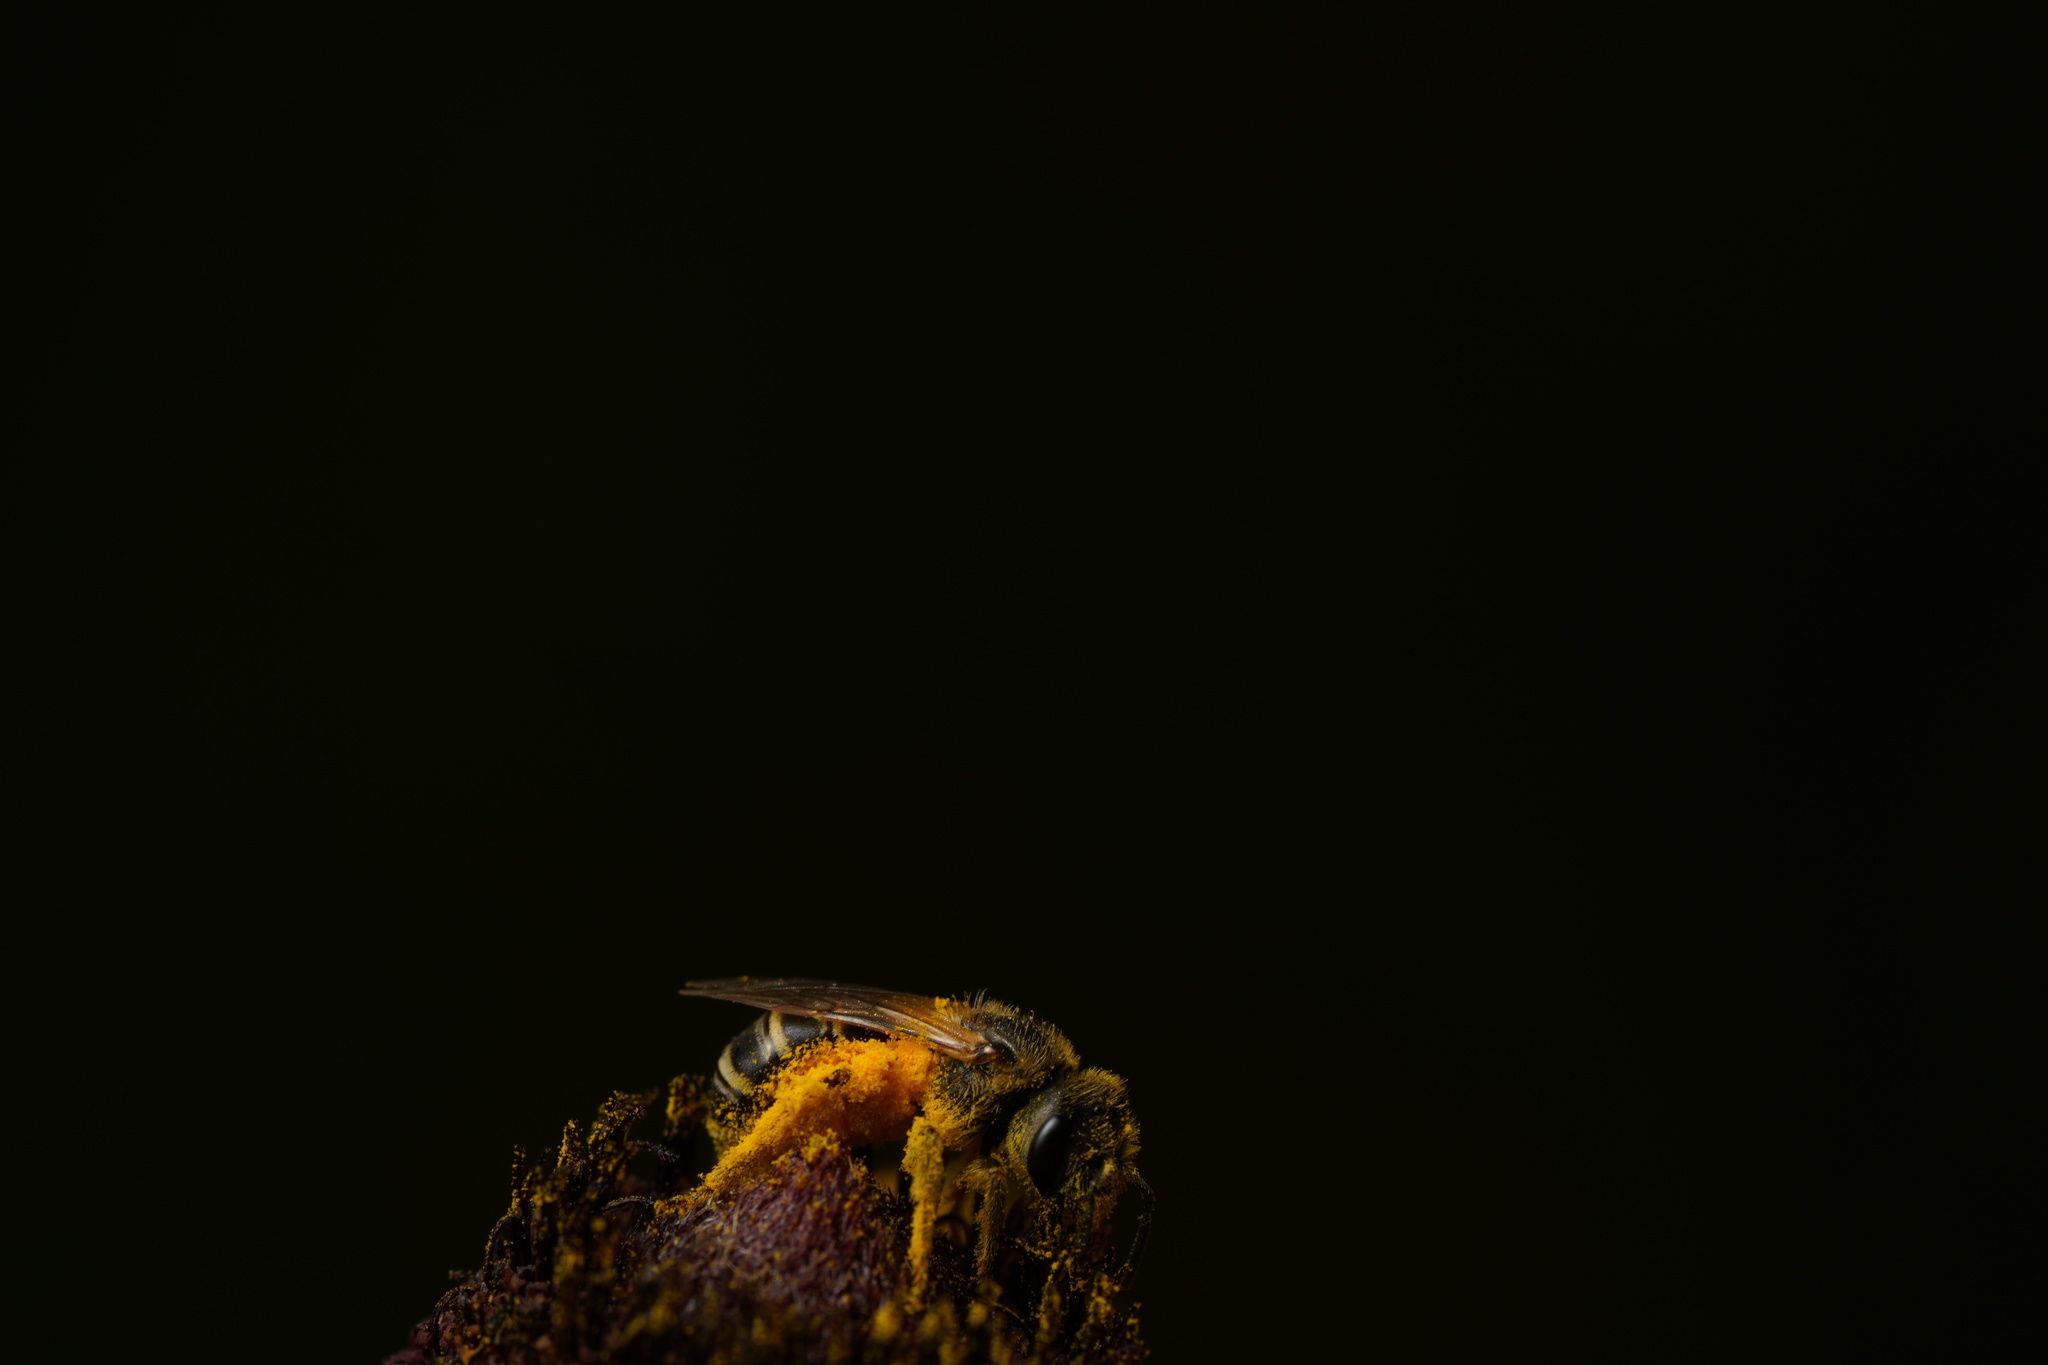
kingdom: Animalia
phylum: Arthropoda
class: Insecta
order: Hymenoptera
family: Halictidae
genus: Halictus
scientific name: Halictus ligatus
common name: Ligated furrow bee
